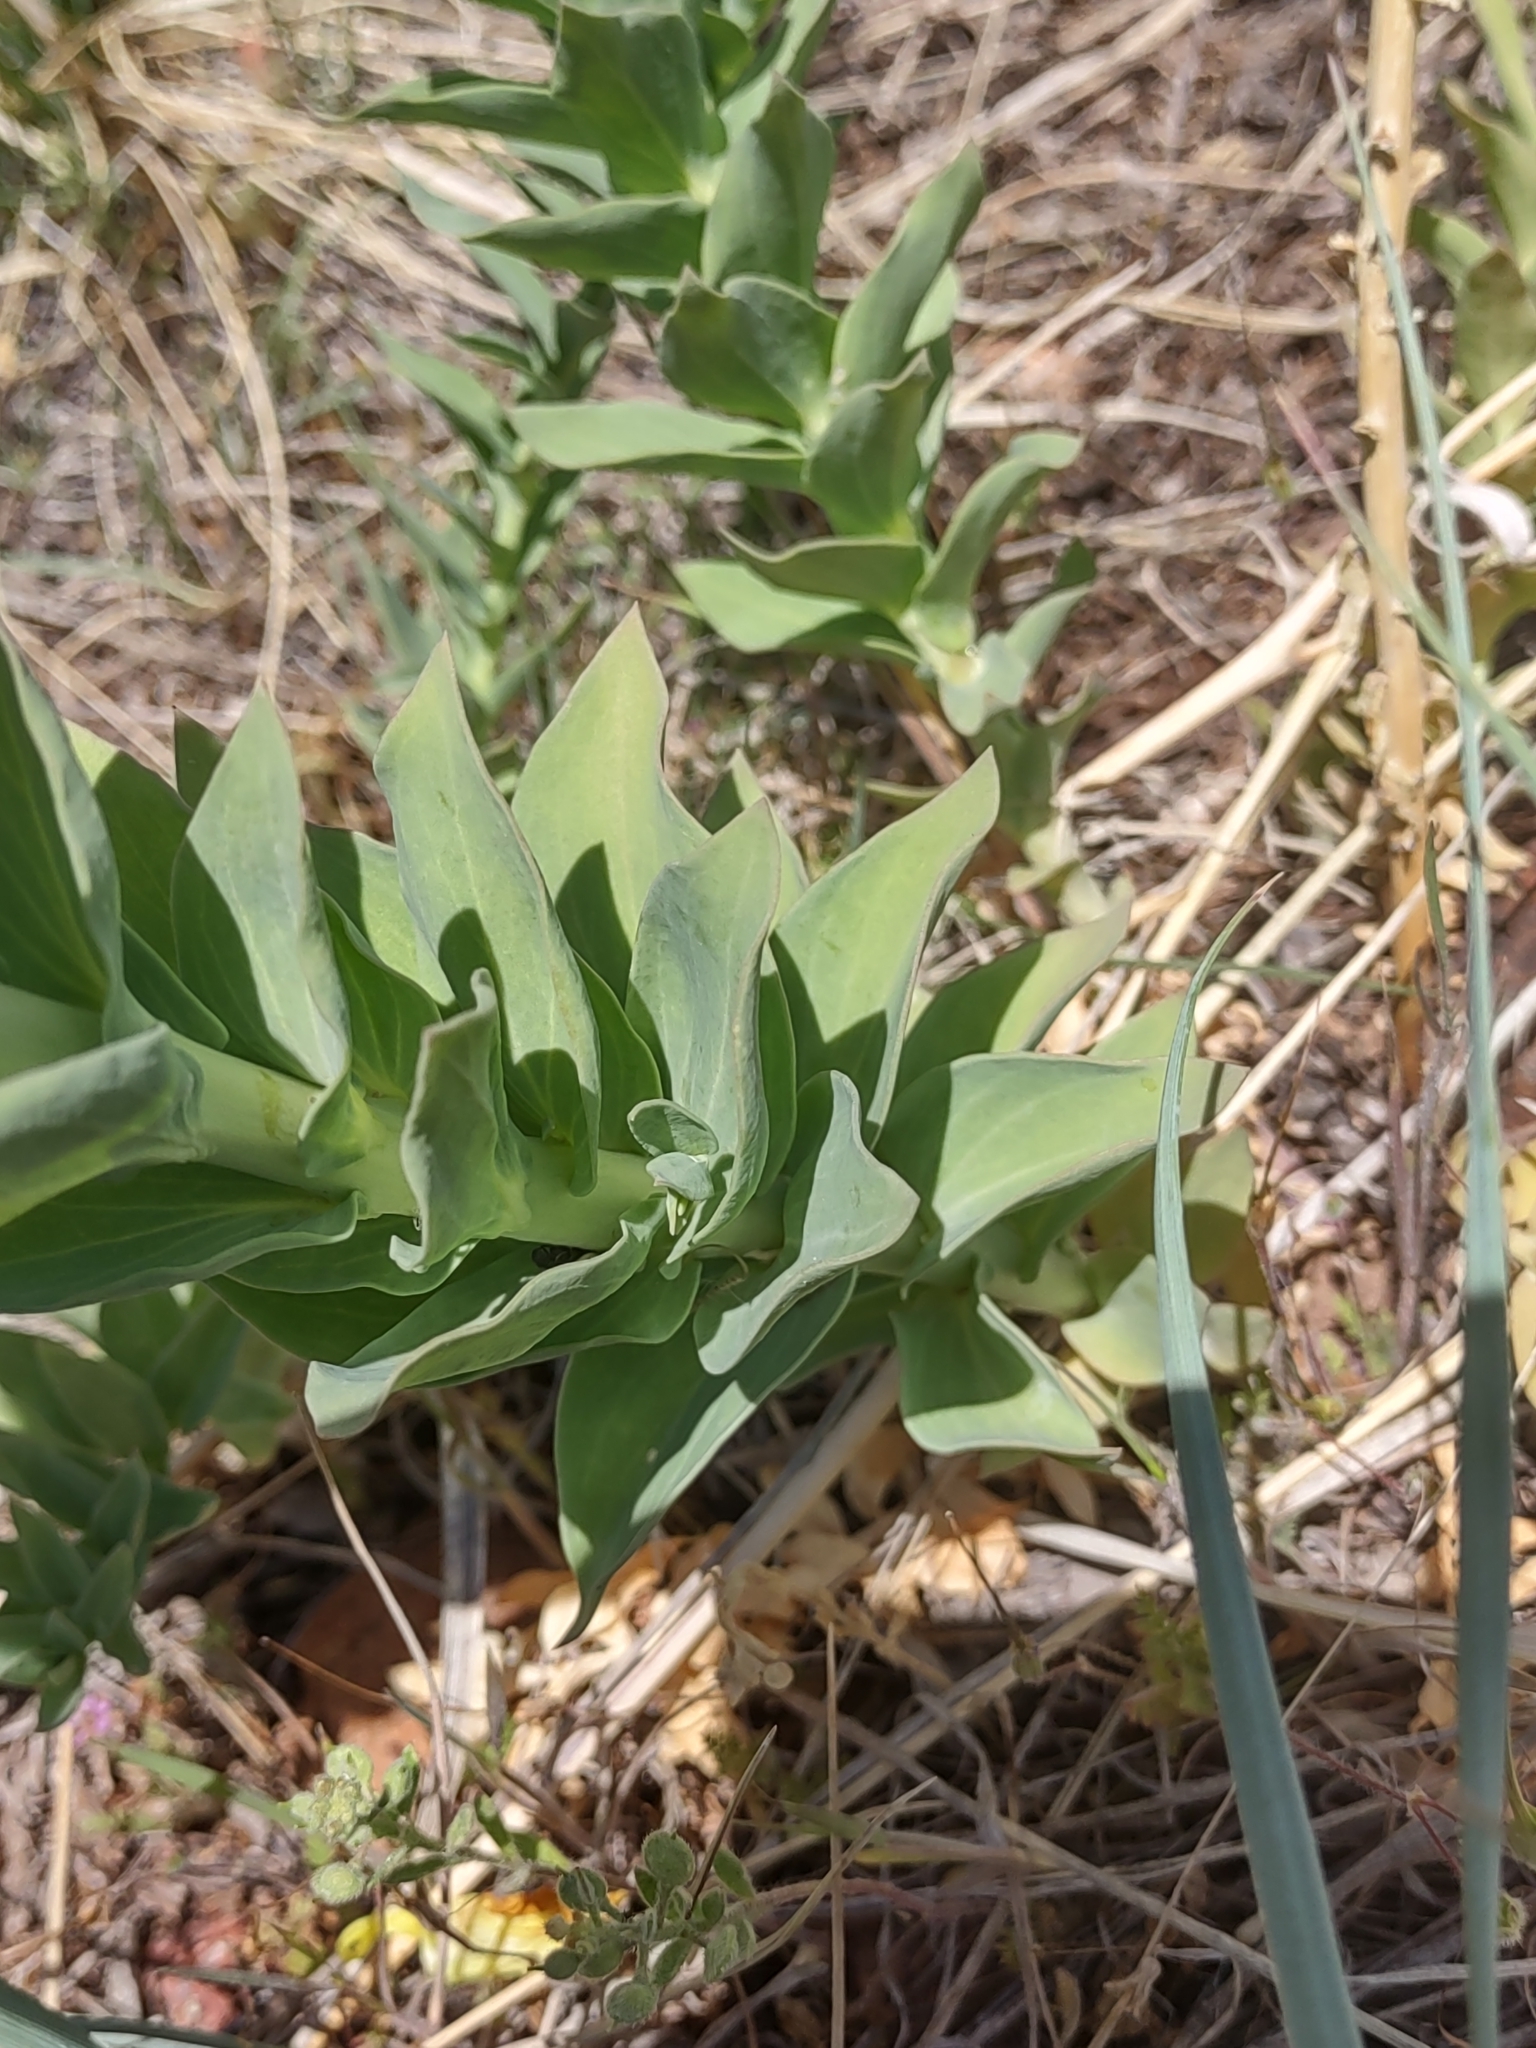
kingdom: Plantae
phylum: Tracheophyta
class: Magnoliopsida
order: Lamiales
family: Plantaginaceae
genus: Linaria
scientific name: Linaria dalmatica
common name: Dalmatian toadflax
